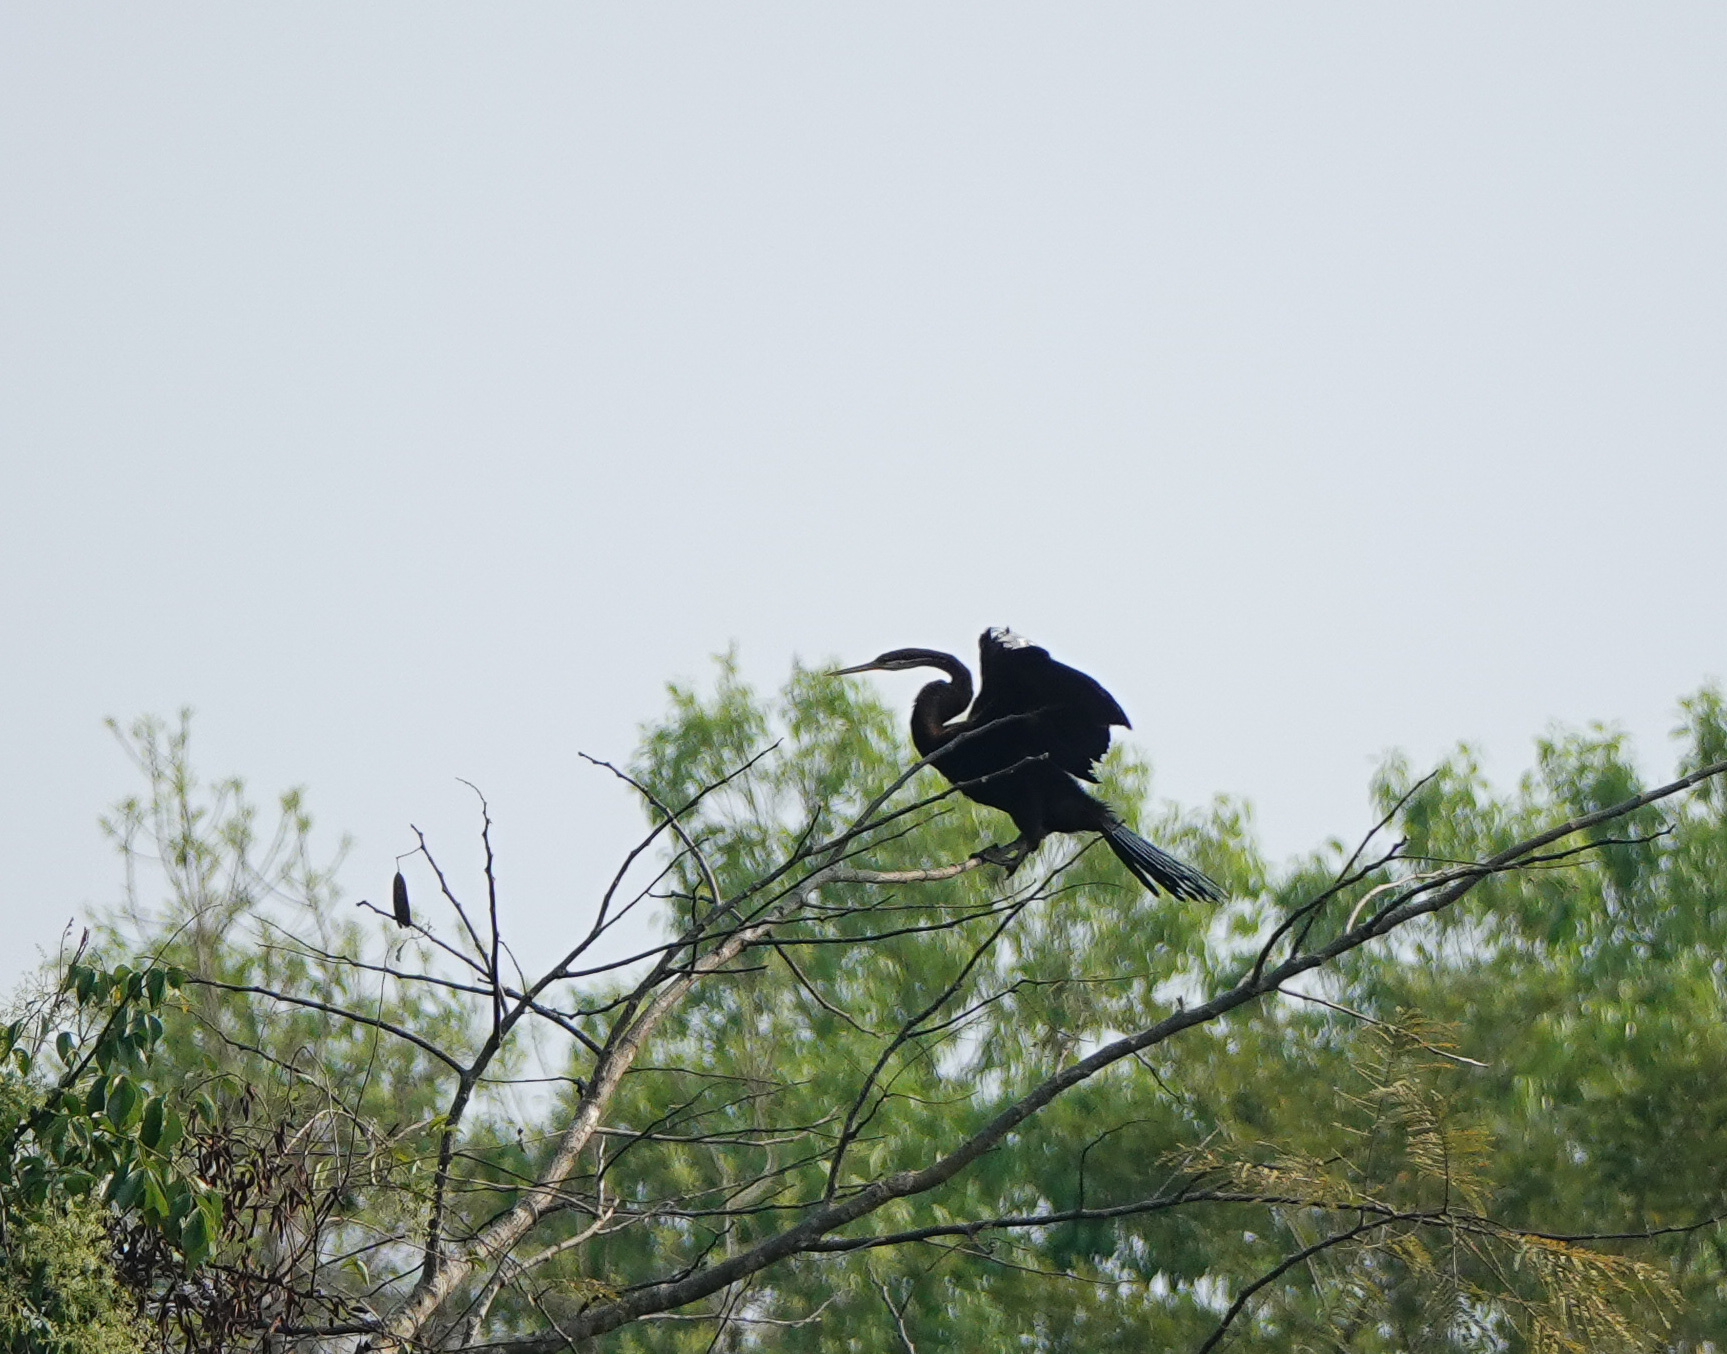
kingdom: Animalia
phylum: Chordata
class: Aves
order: Suliformes
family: Anhingidae
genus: Anhinga
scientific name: Anhinga melanogaster
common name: Oriental darter
